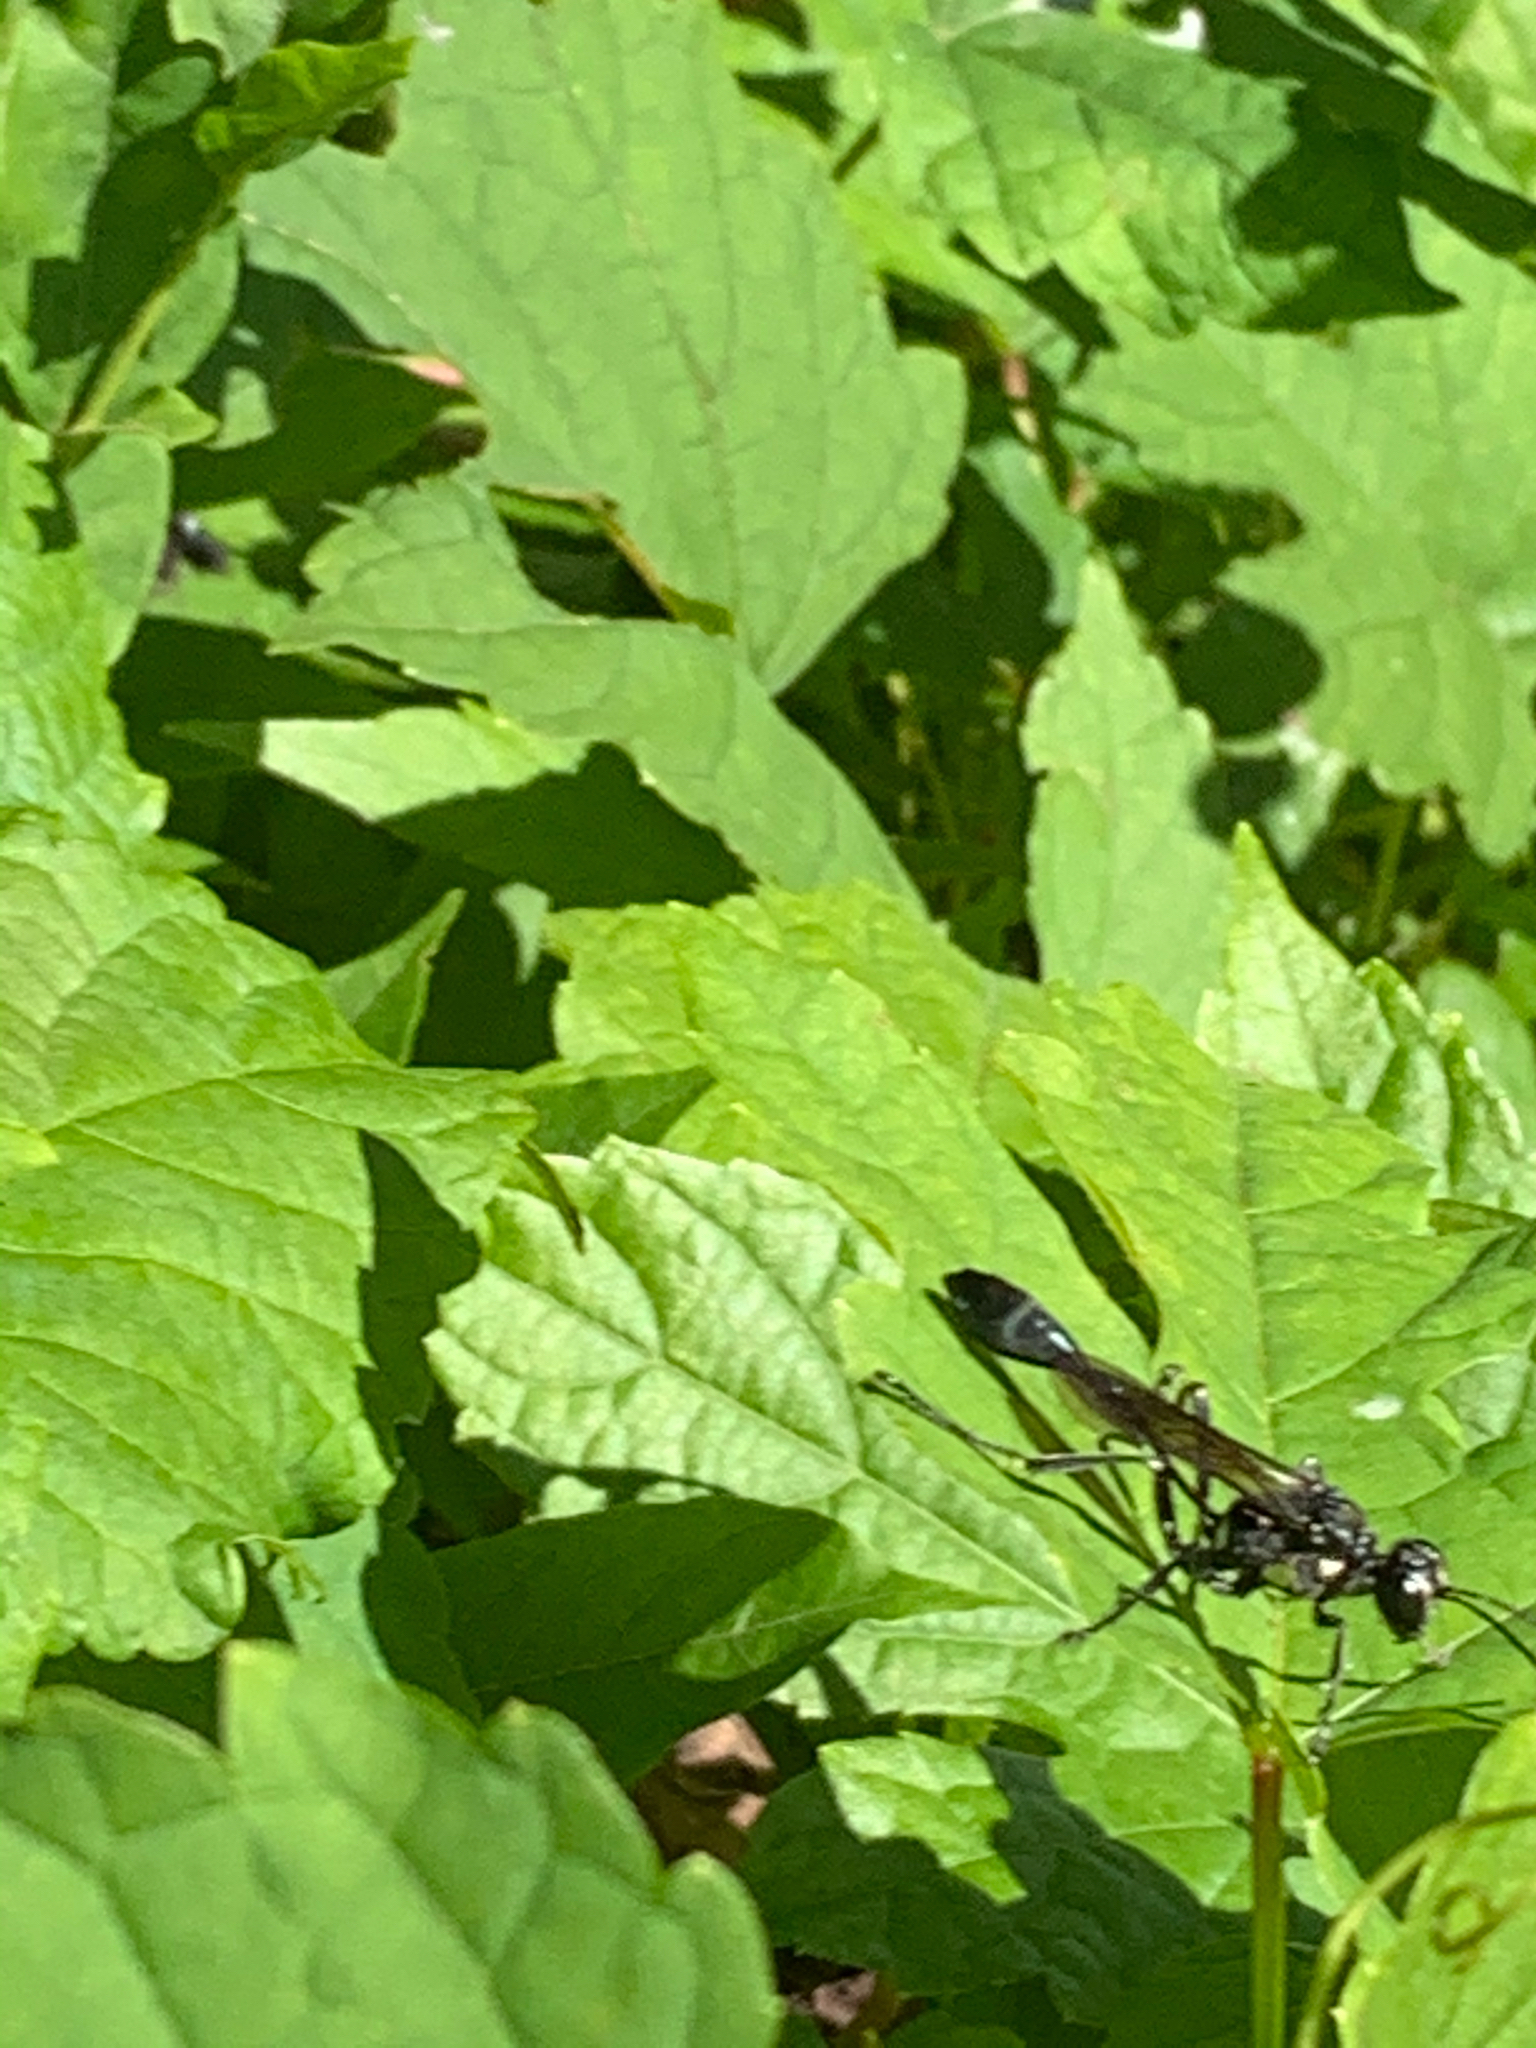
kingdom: Animalia
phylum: Arthropoda
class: Insecta
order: Hymenoptera
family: Sphecidae
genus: Eremnophila
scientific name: Eremnophila aureonotata
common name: Gold-marked thread-waisted wasp
